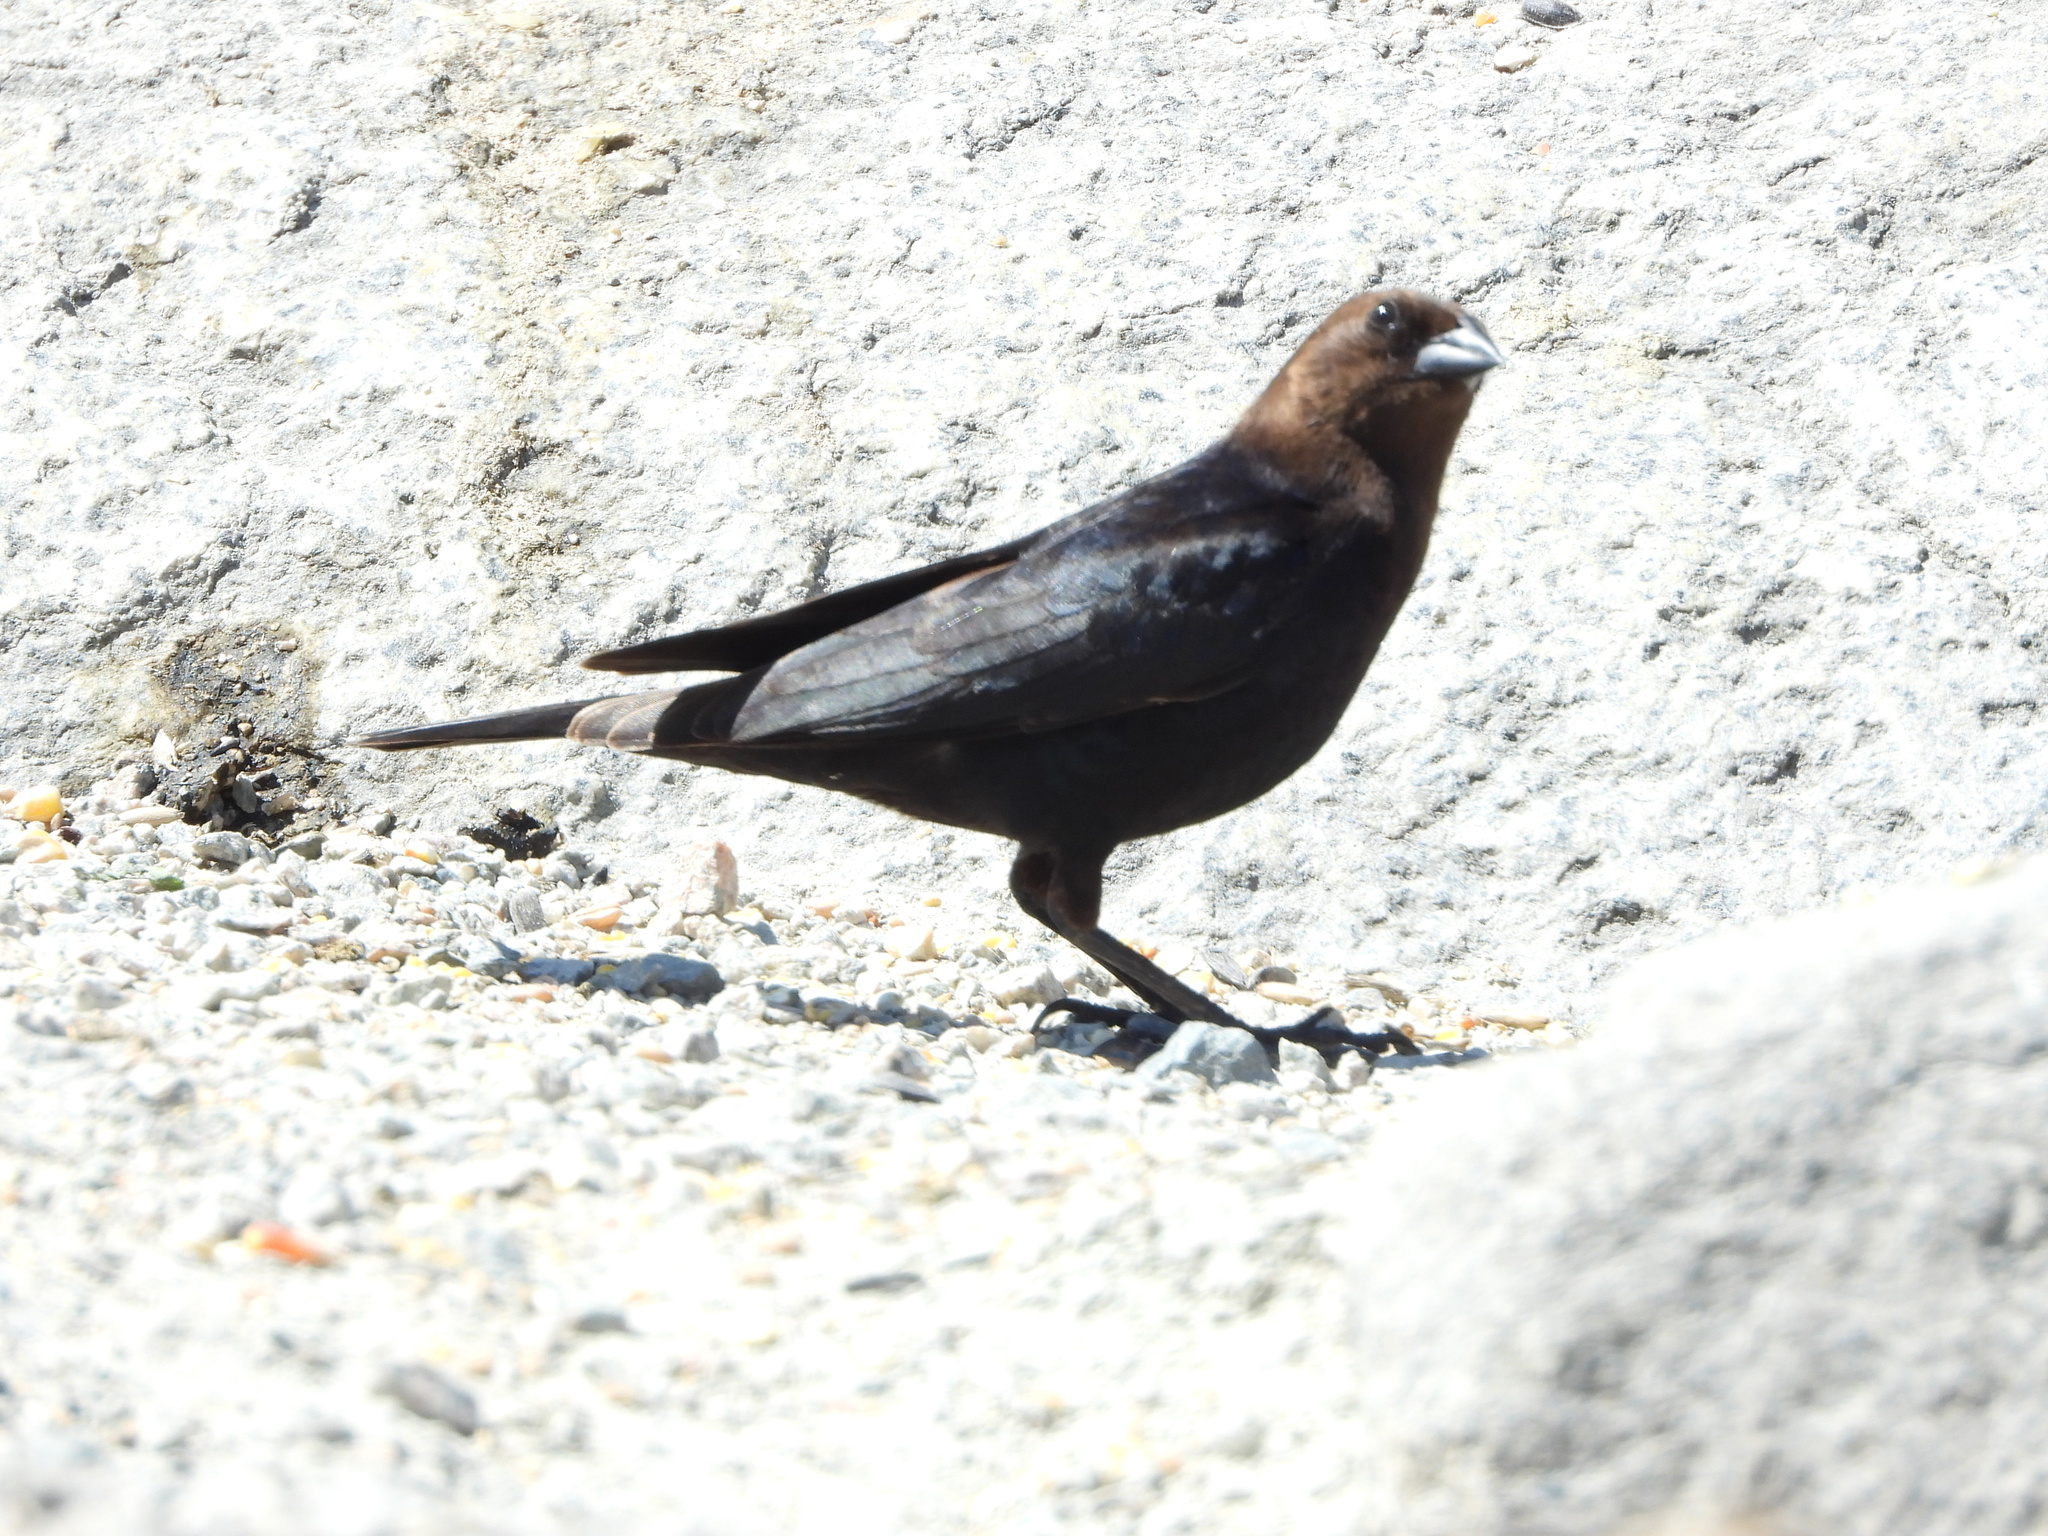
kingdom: Animalia
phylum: Chordata
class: Aves
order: Passeriformes
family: Icteridae
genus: Molothrus
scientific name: Molothrus ater
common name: Brown-headed cowbird
